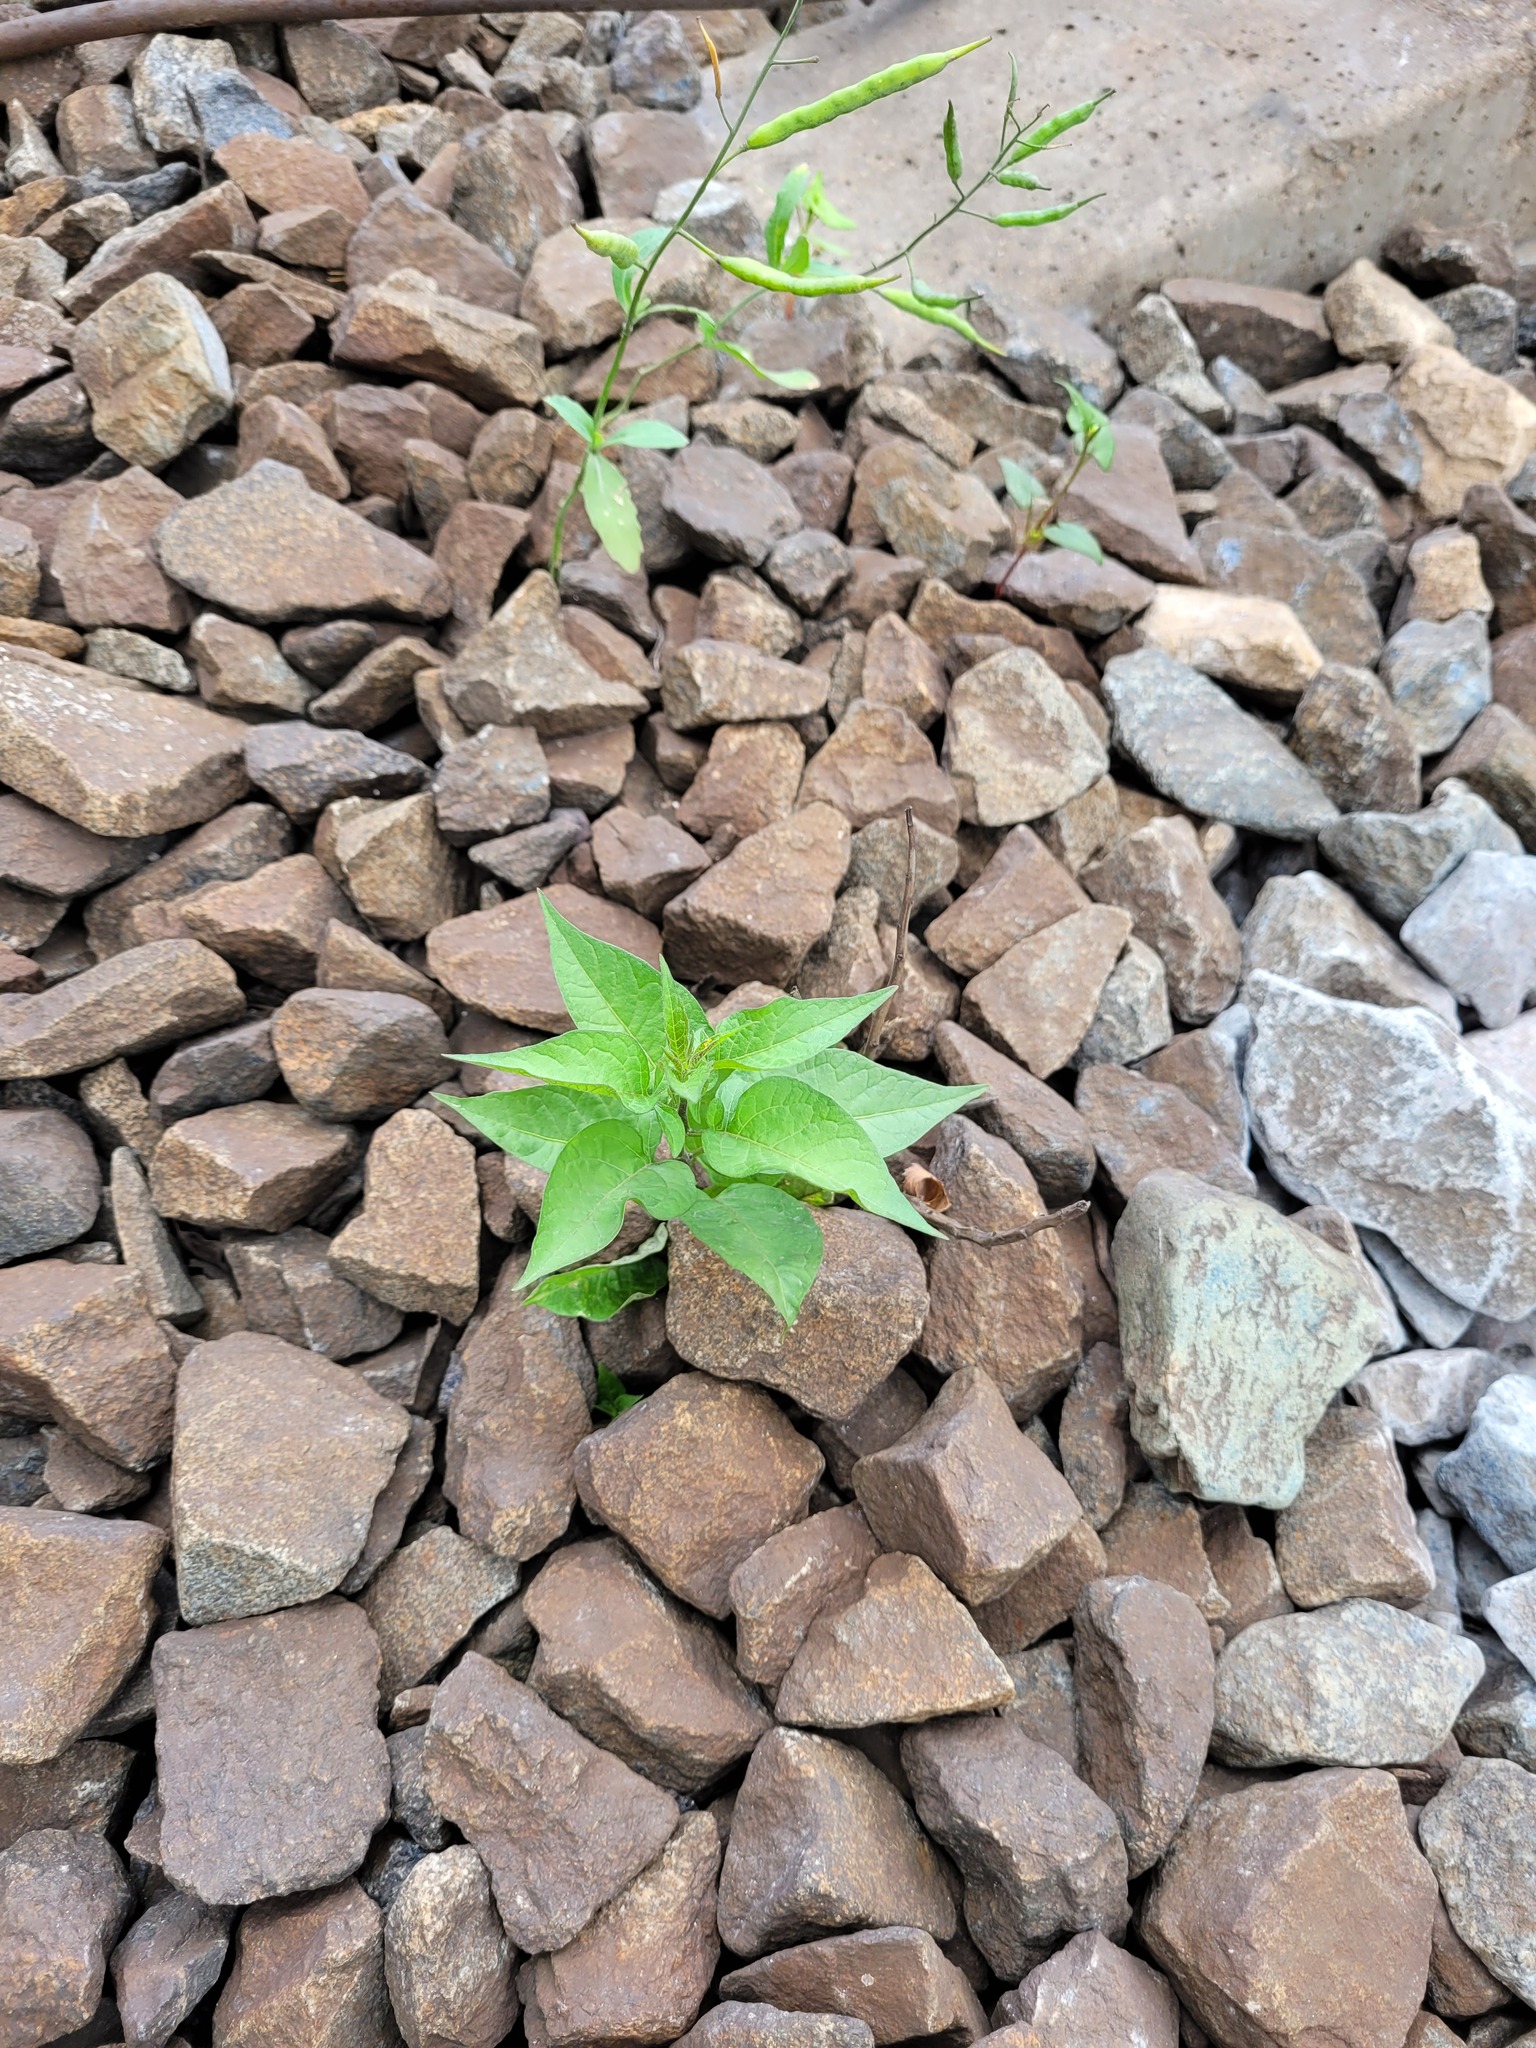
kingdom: Plantae
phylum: Tracheophyta
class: Magnoliopsida
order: Solanales
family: Solanaceae
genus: Solanum
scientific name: Solanum dulcamara
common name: Climbing nightshade
